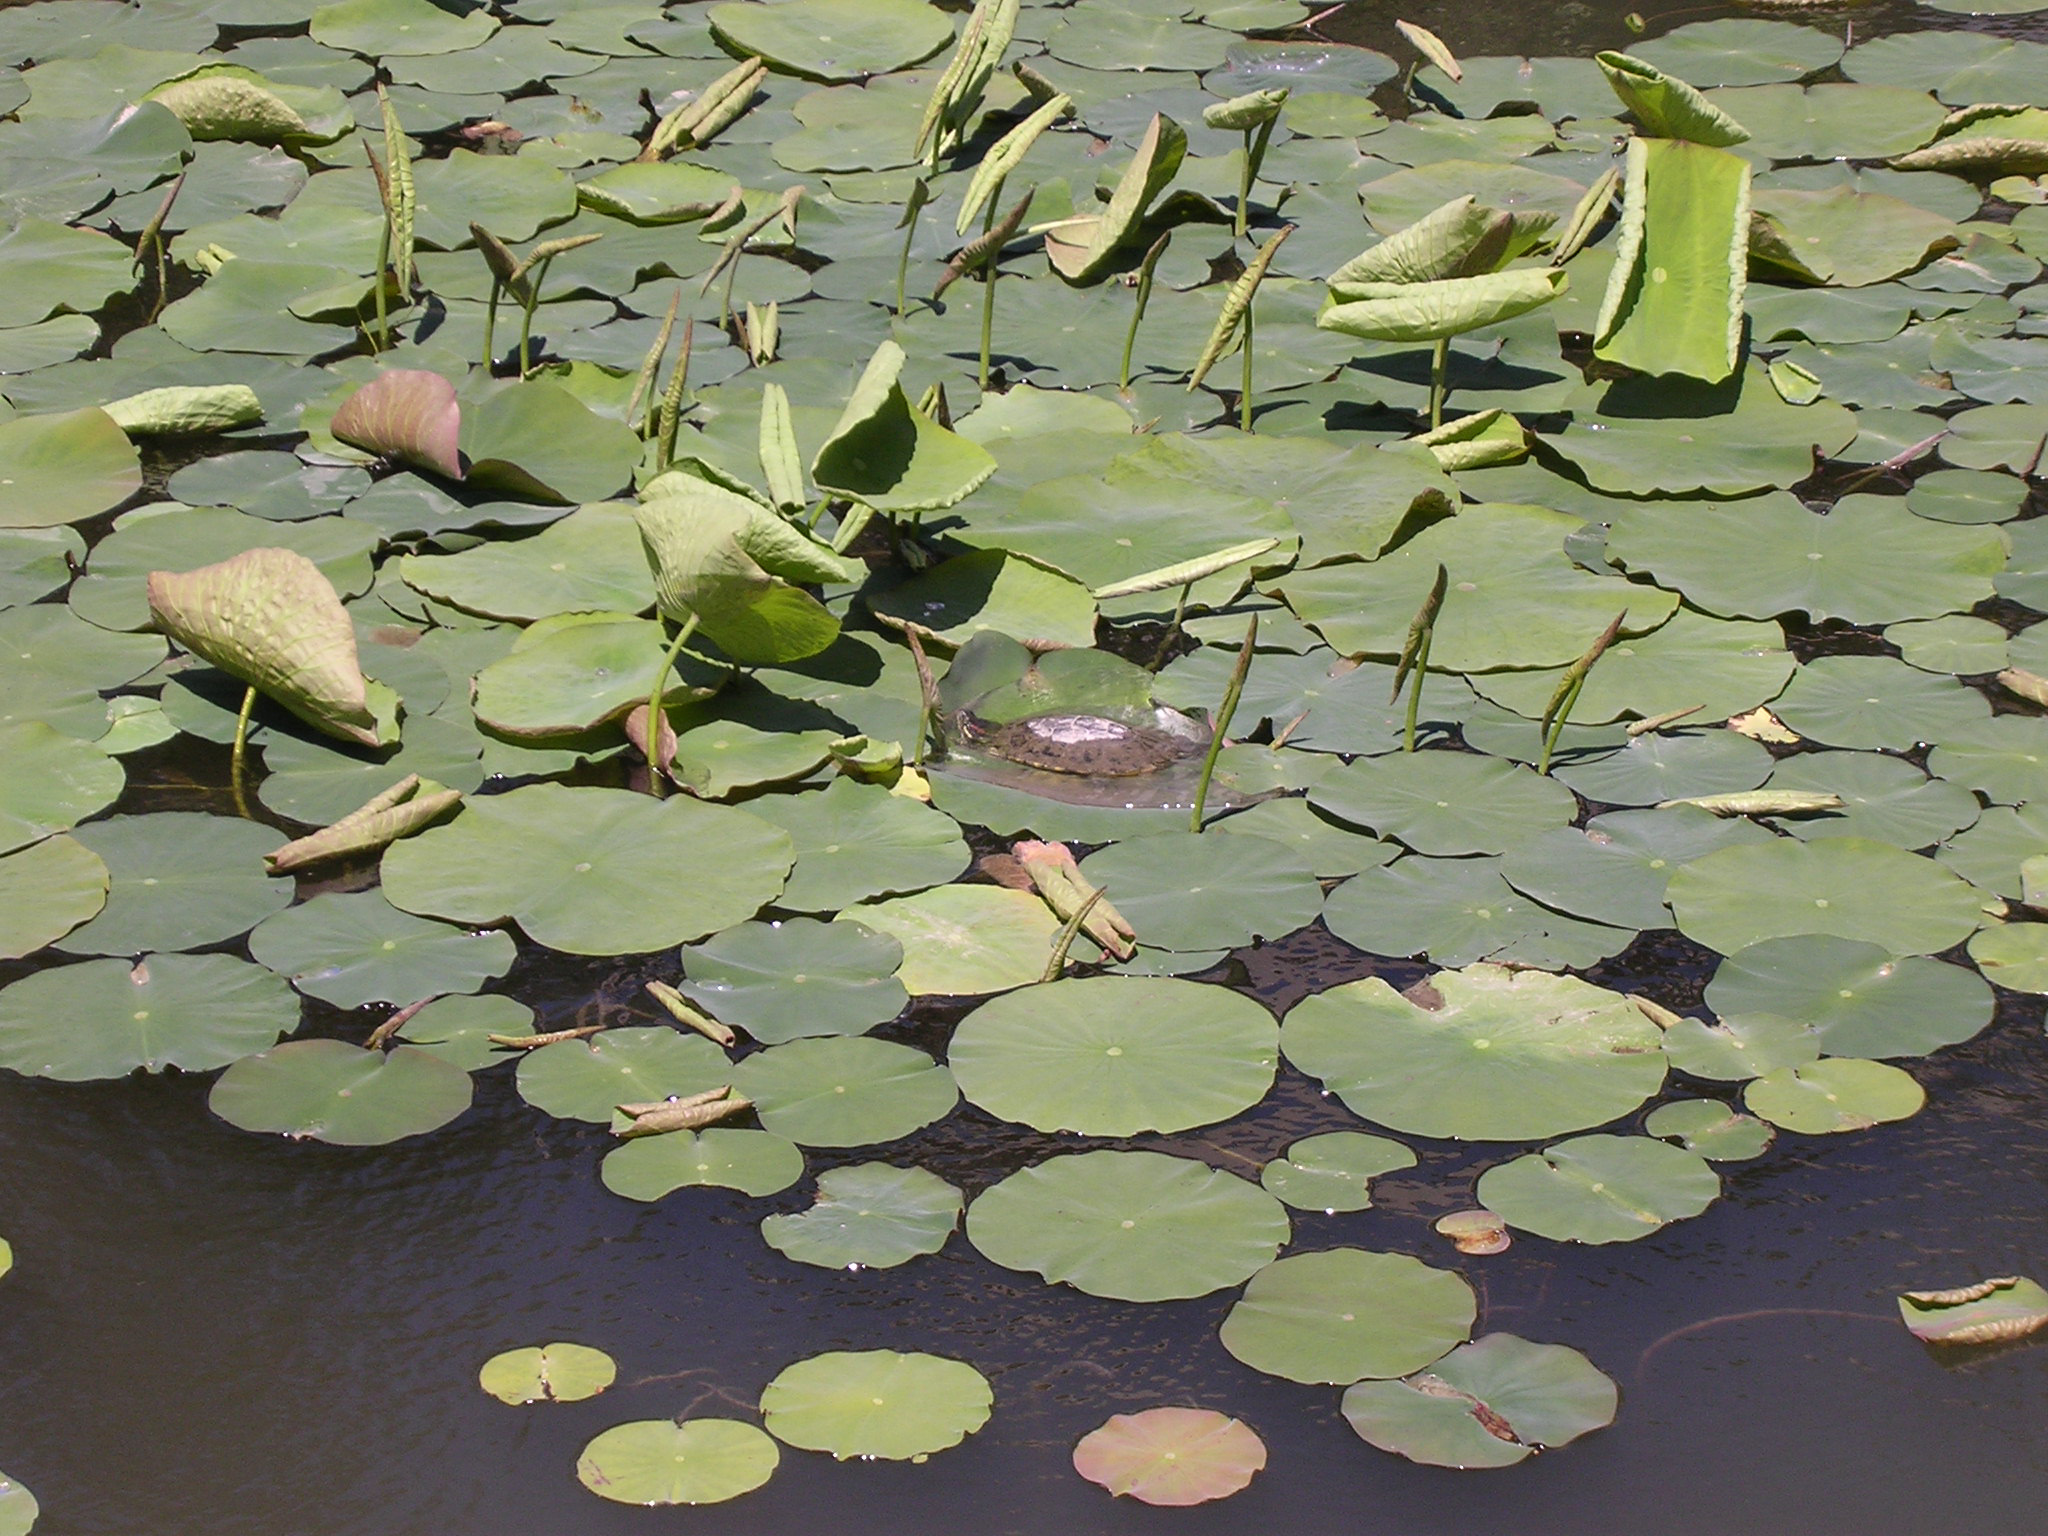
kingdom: Animalia
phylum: Chordata
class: Testudines
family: Emydidae
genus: Trachemys
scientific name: Trachemys scripta
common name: Slider
